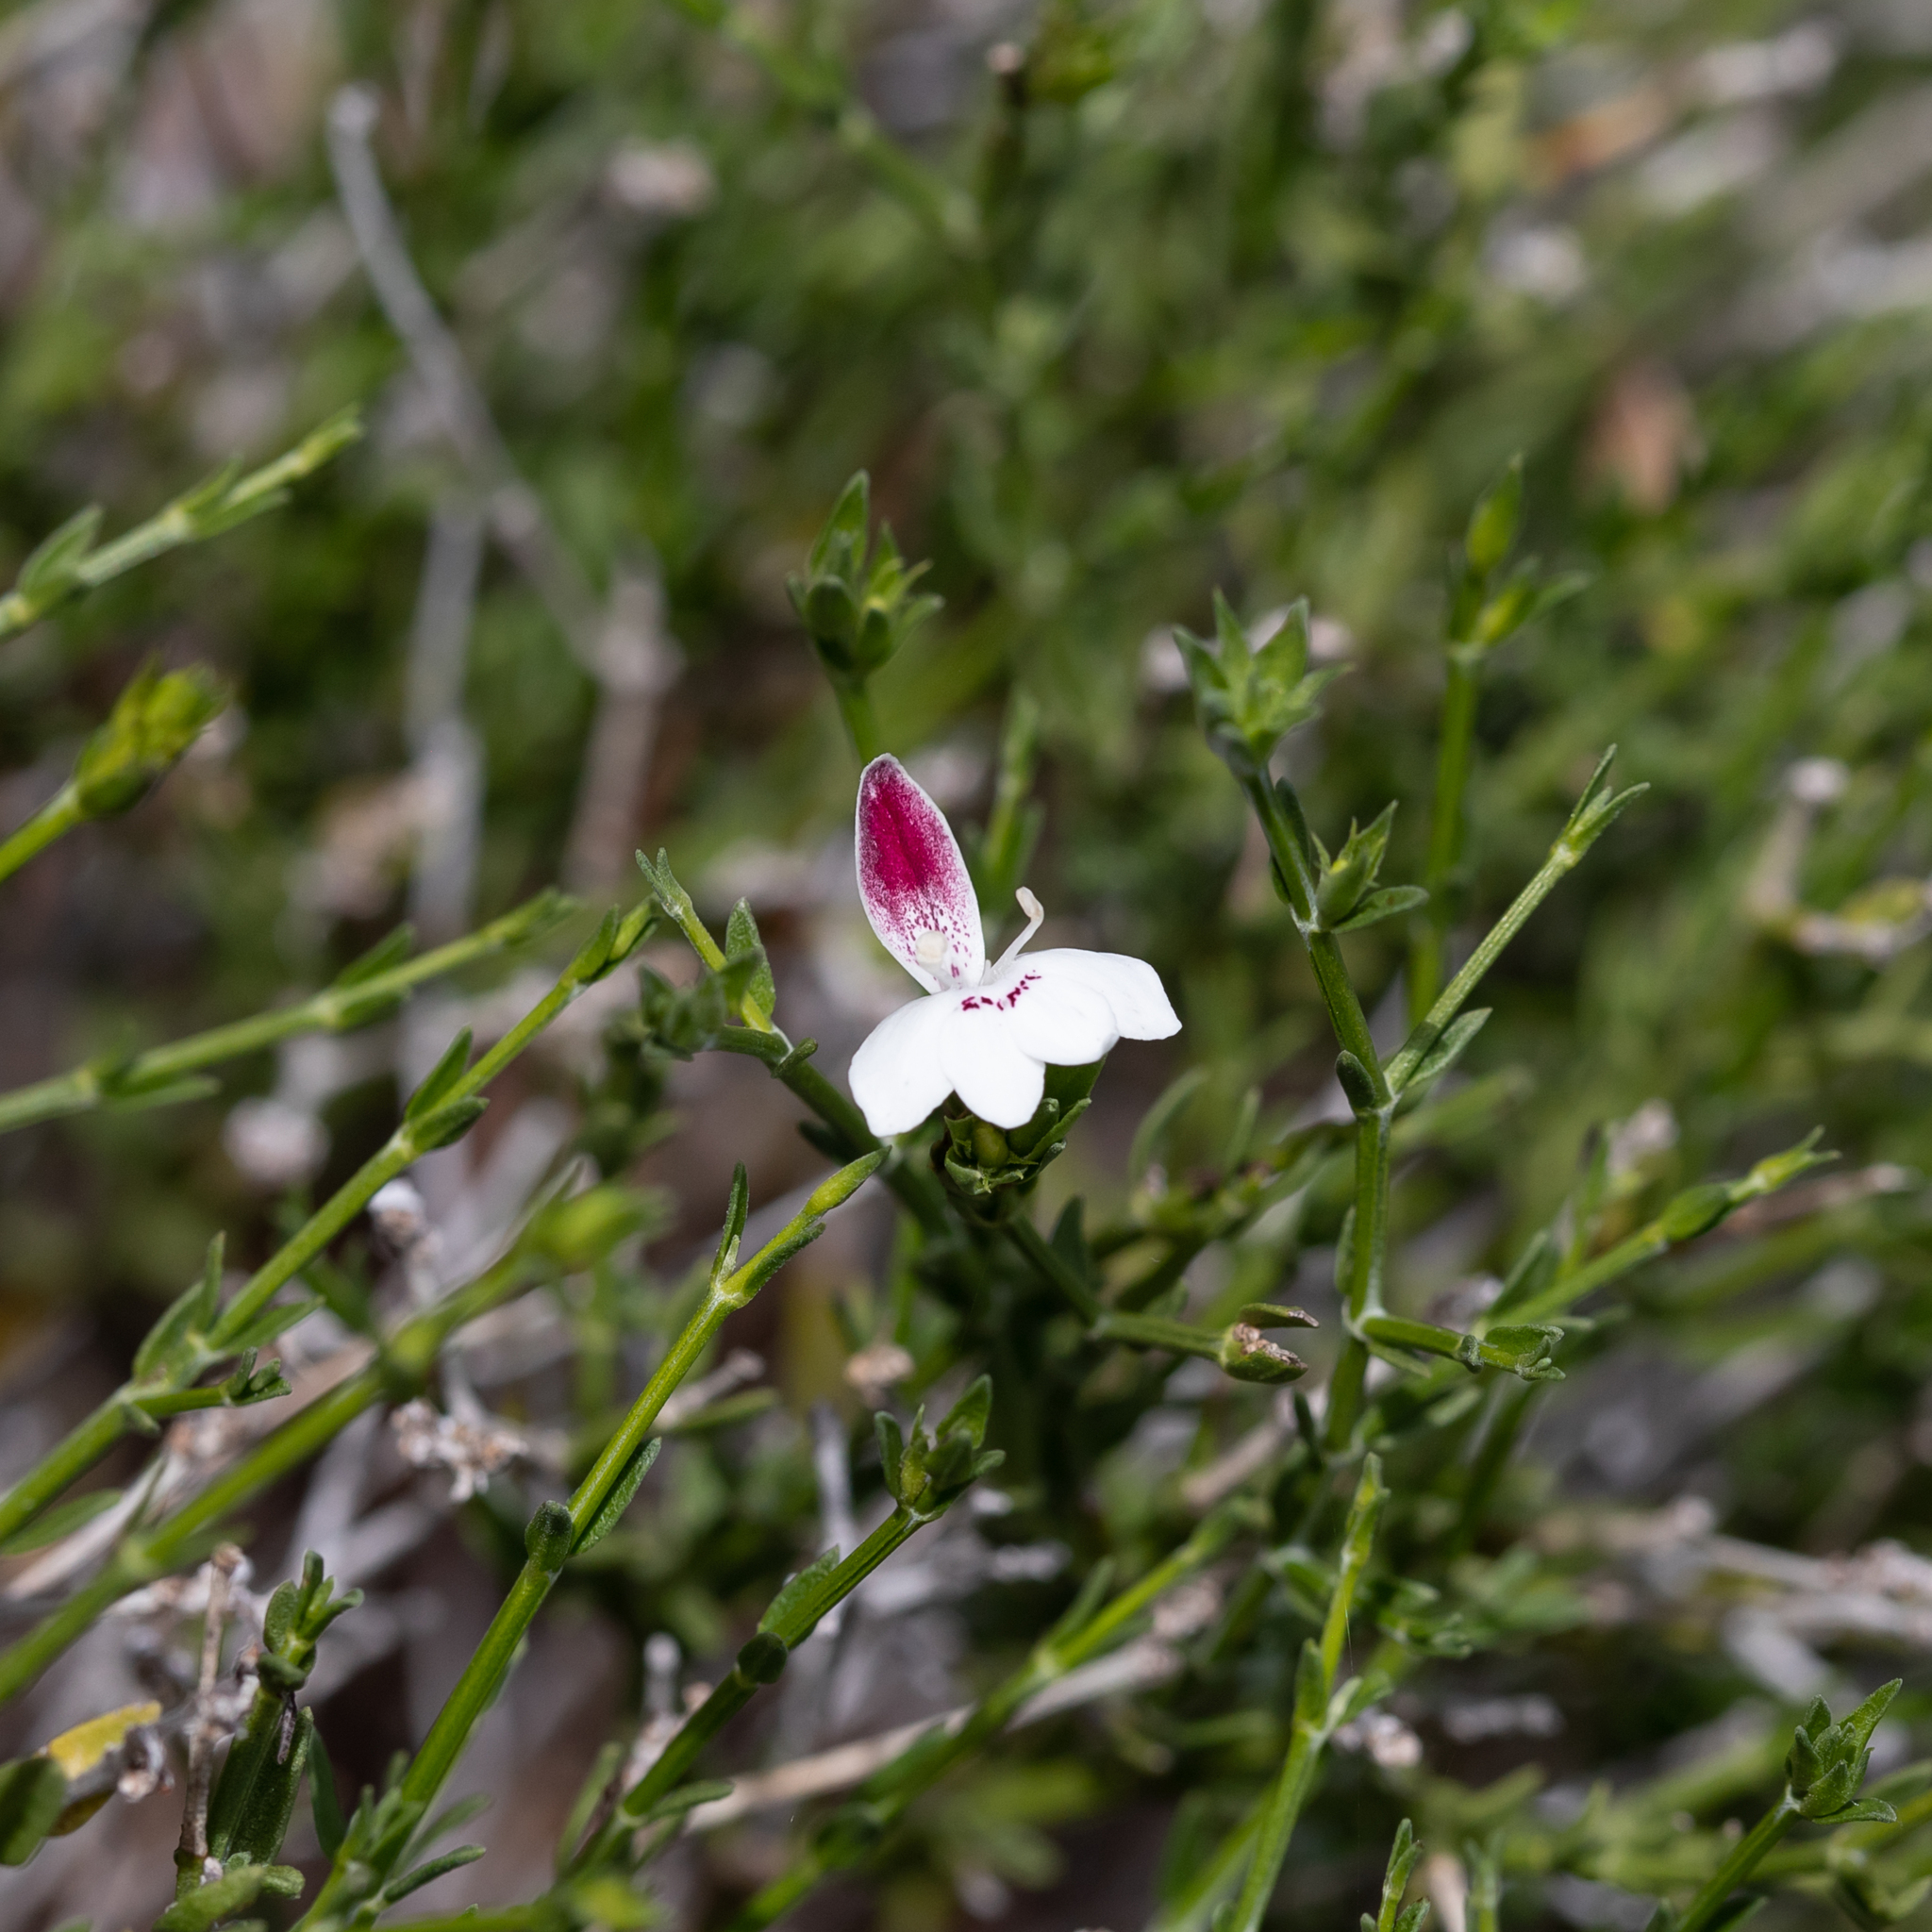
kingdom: Plantae
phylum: Tracheophyta
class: Magnoliopsida
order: Lamiales
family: Acanthaceae
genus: Xerothamnella
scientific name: Xerothamnella parvifolia
